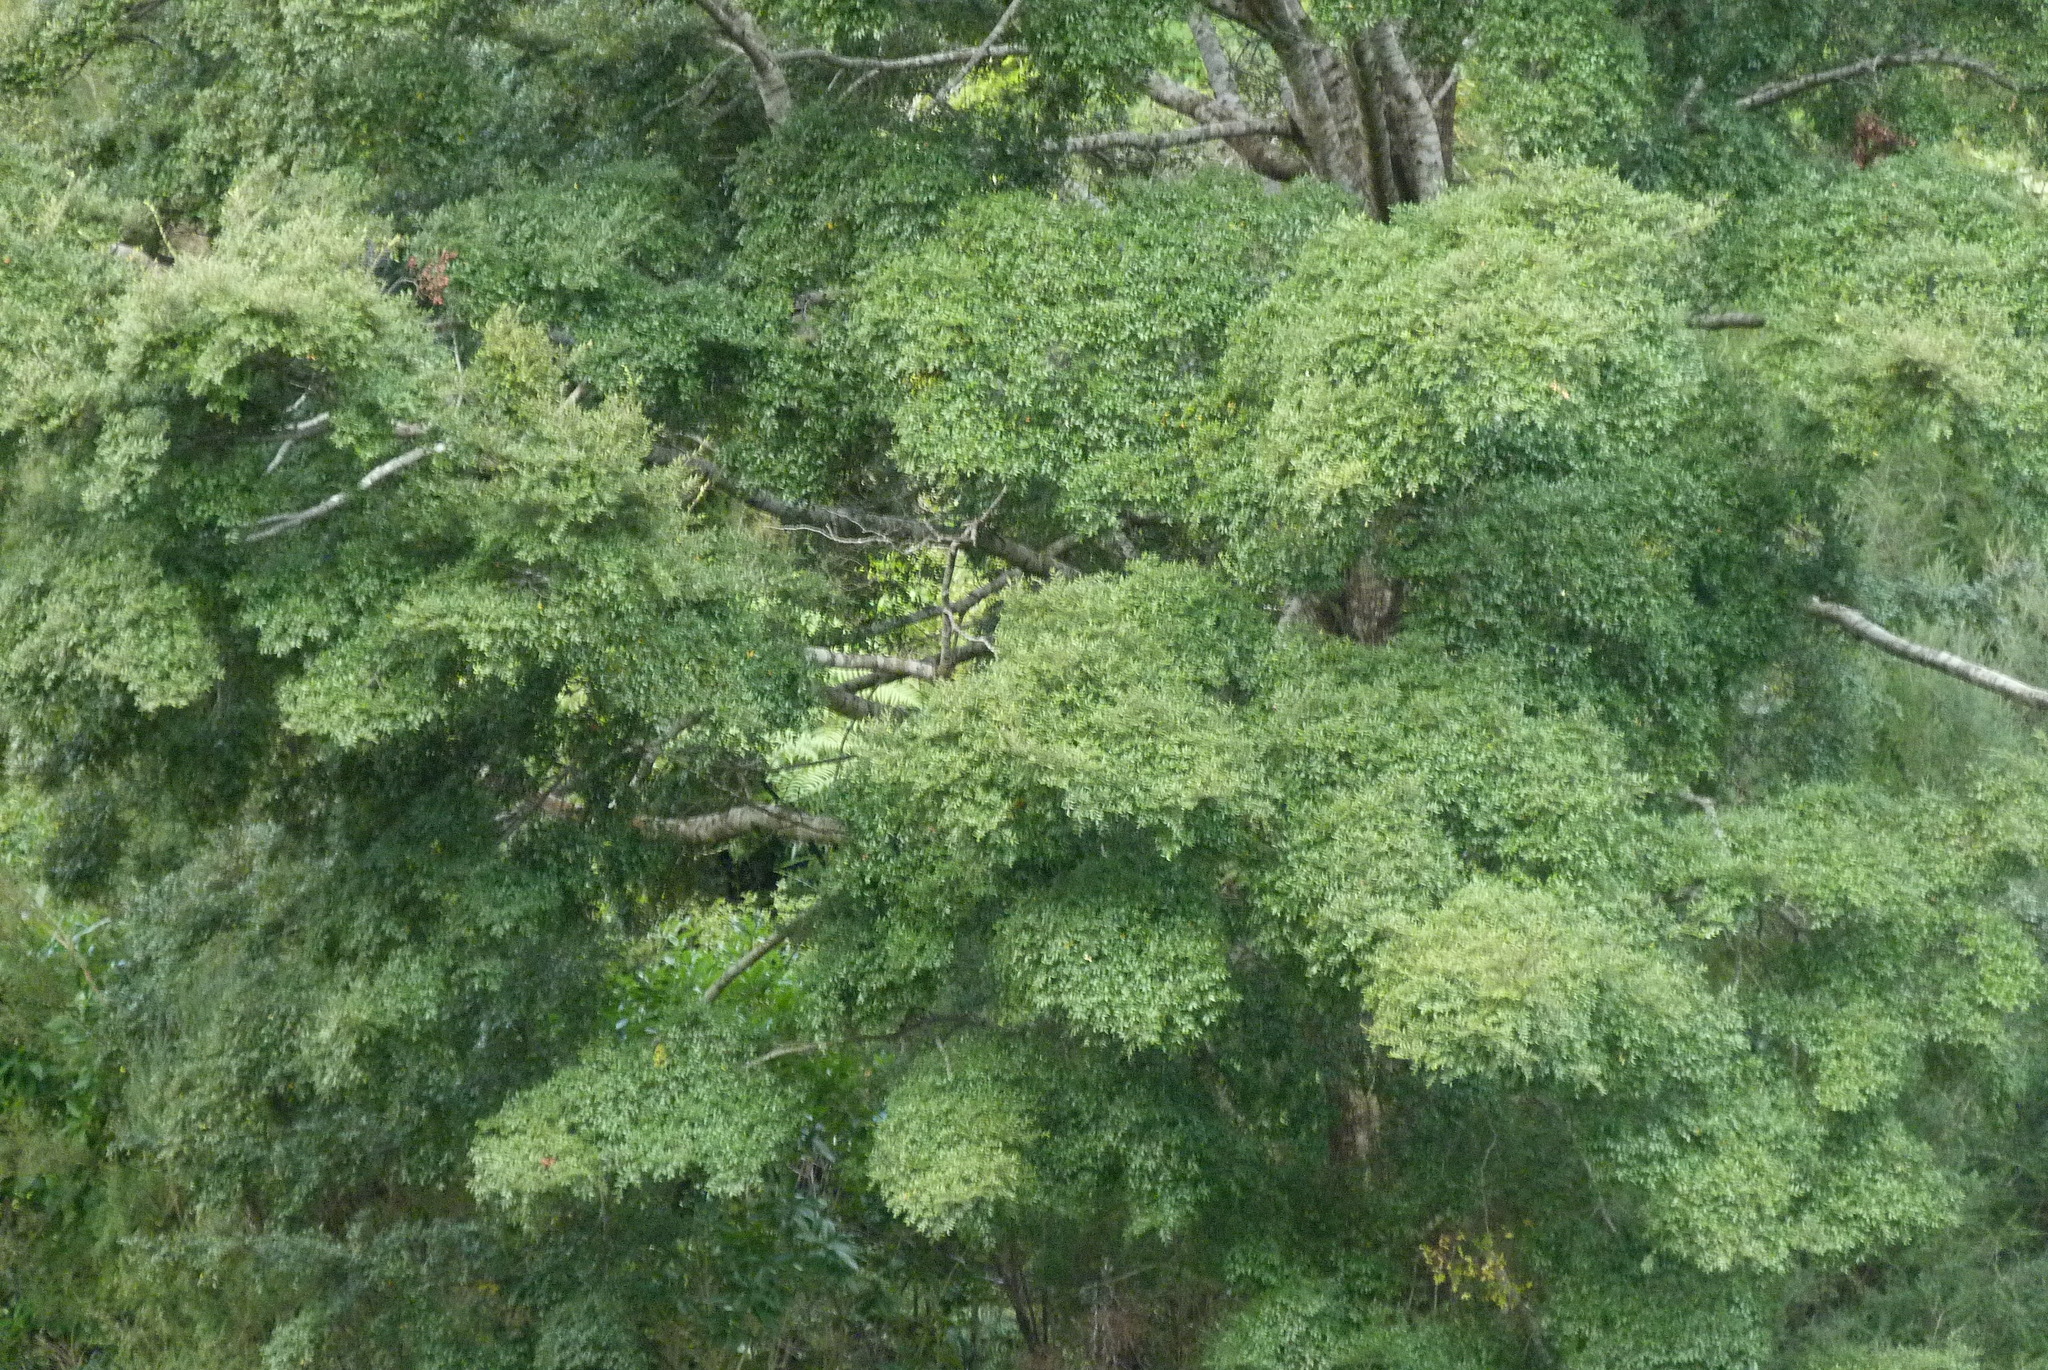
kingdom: Plantae
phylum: Tracheophyta
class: Magnoliopsida
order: Fagales
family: Nothofagaceae
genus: Nothofagus
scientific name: Nothofagus solandri
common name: Black beech
